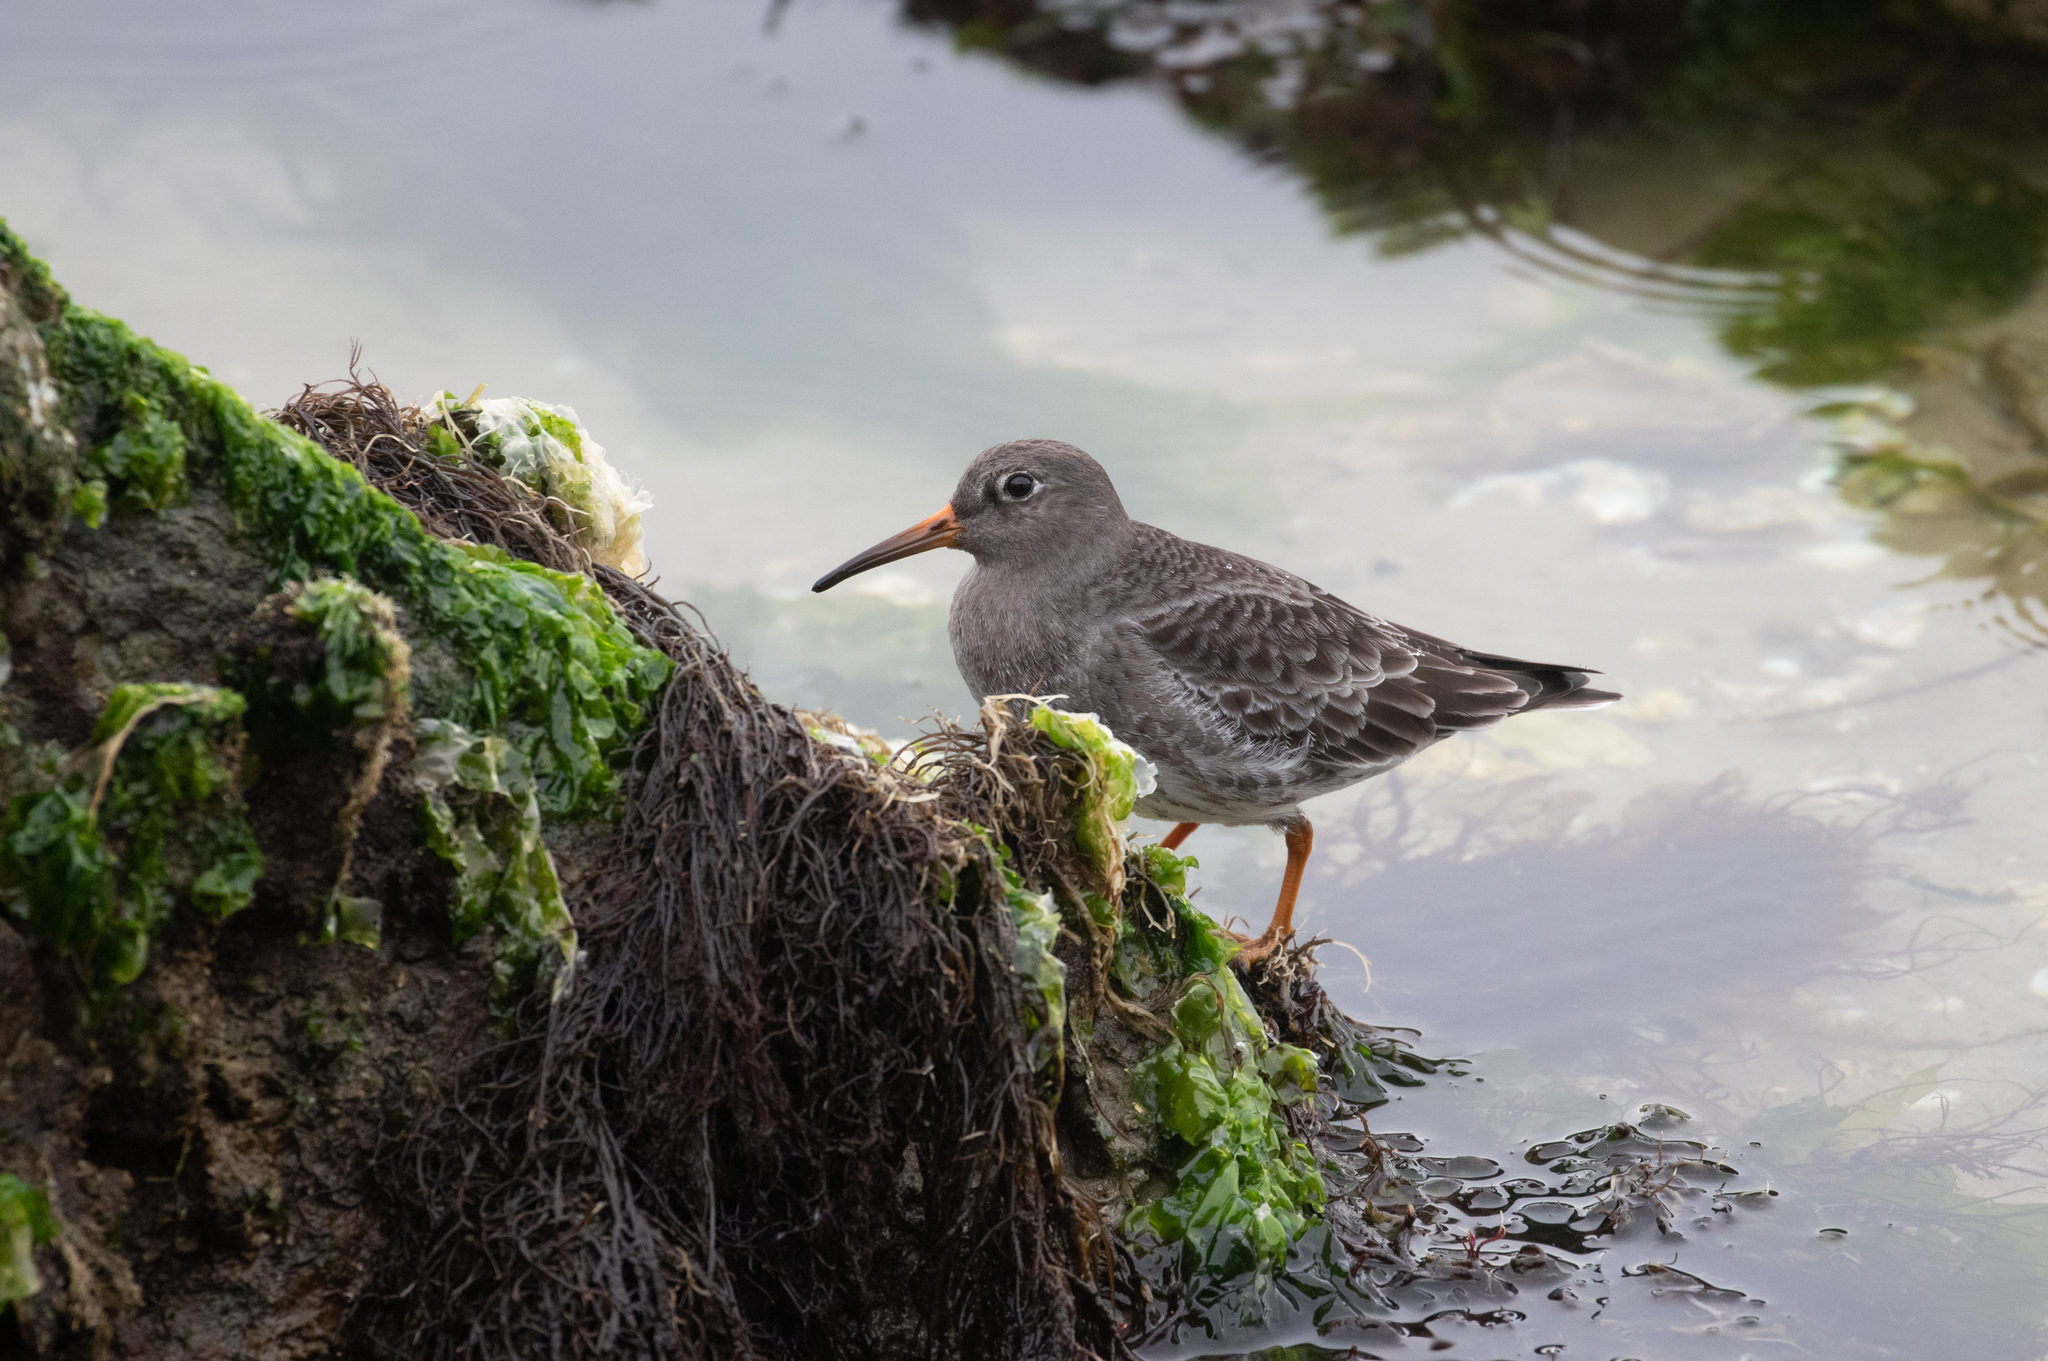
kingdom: Animalia
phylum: Chordata
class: Aves
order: Charadriiformes
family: Scolopacidae
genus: Calidris
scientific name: Calidris maritima
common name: Purple sandpiper
